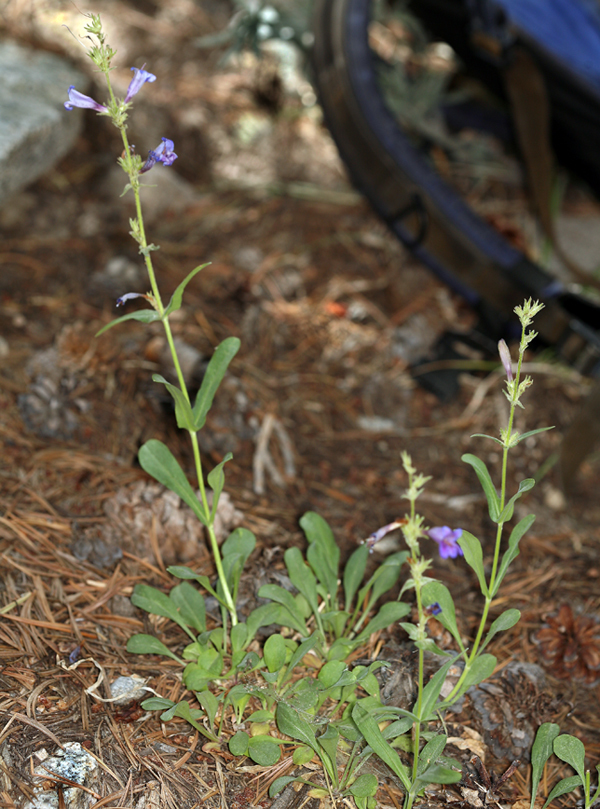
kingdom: Plantae
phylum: Tracheophyta
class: Magnoliopsida
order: Lamiales
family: Plantaginaceae
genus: Penstemon
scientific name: Penstemon papillatus
